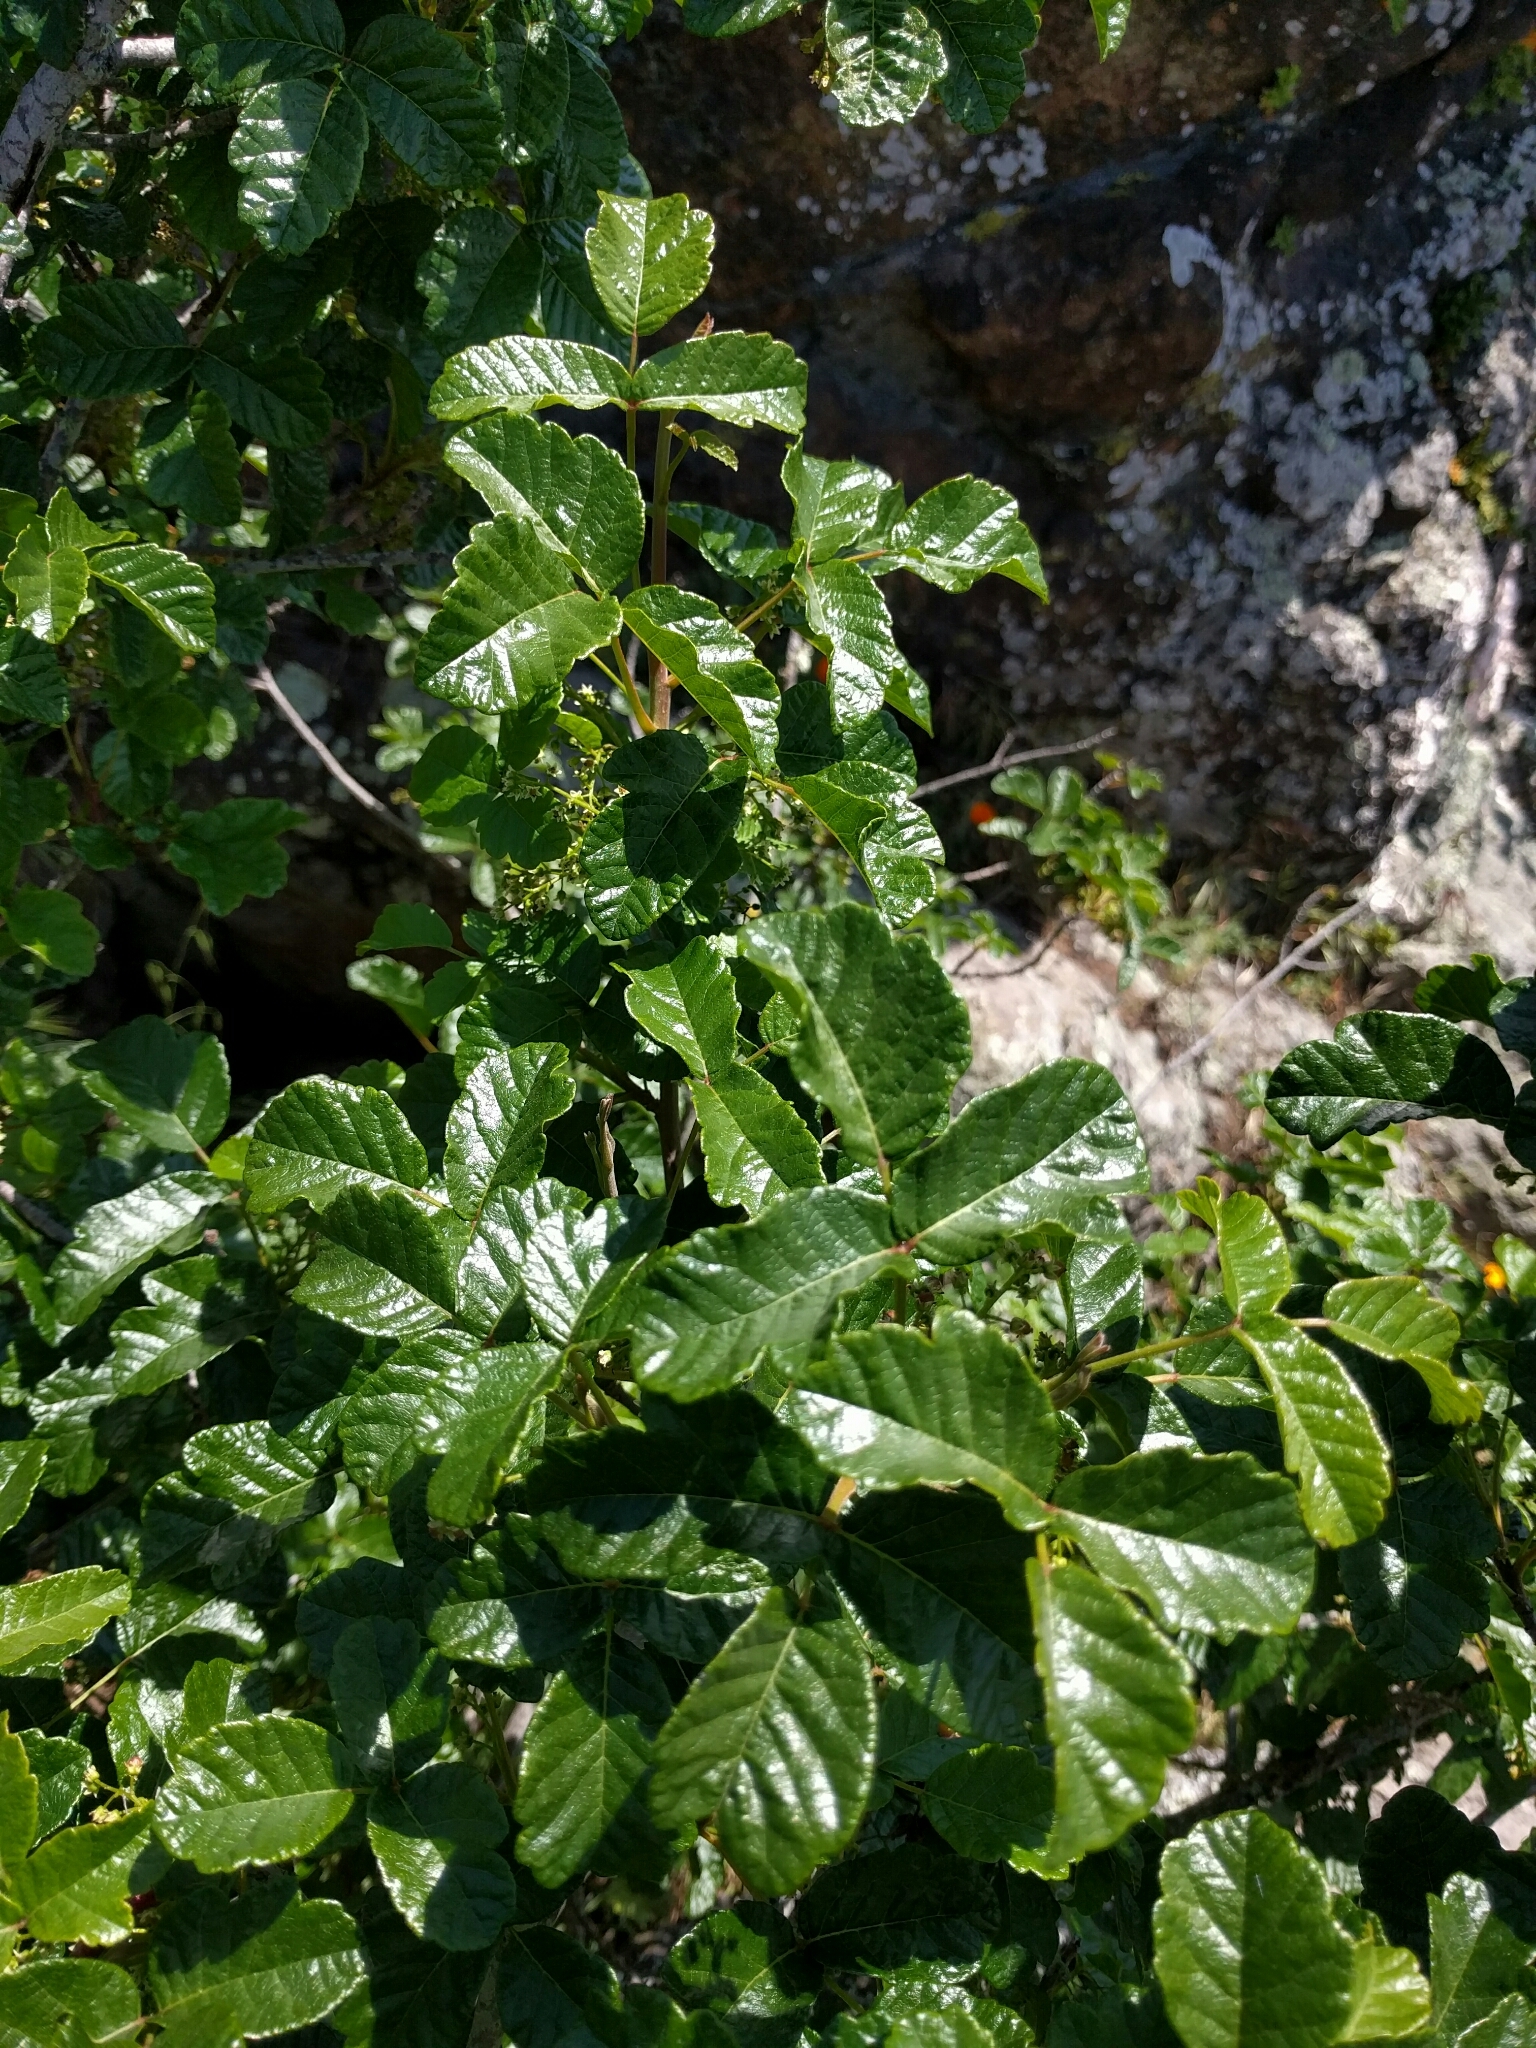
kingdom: Plantae
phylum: Tracheophyta
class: Magnoliopsida
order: Sapindales
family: Anacardiaceae
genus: Toxicodendron
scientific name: Toxicodendron diversilobum
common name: Pacific poison-oak
